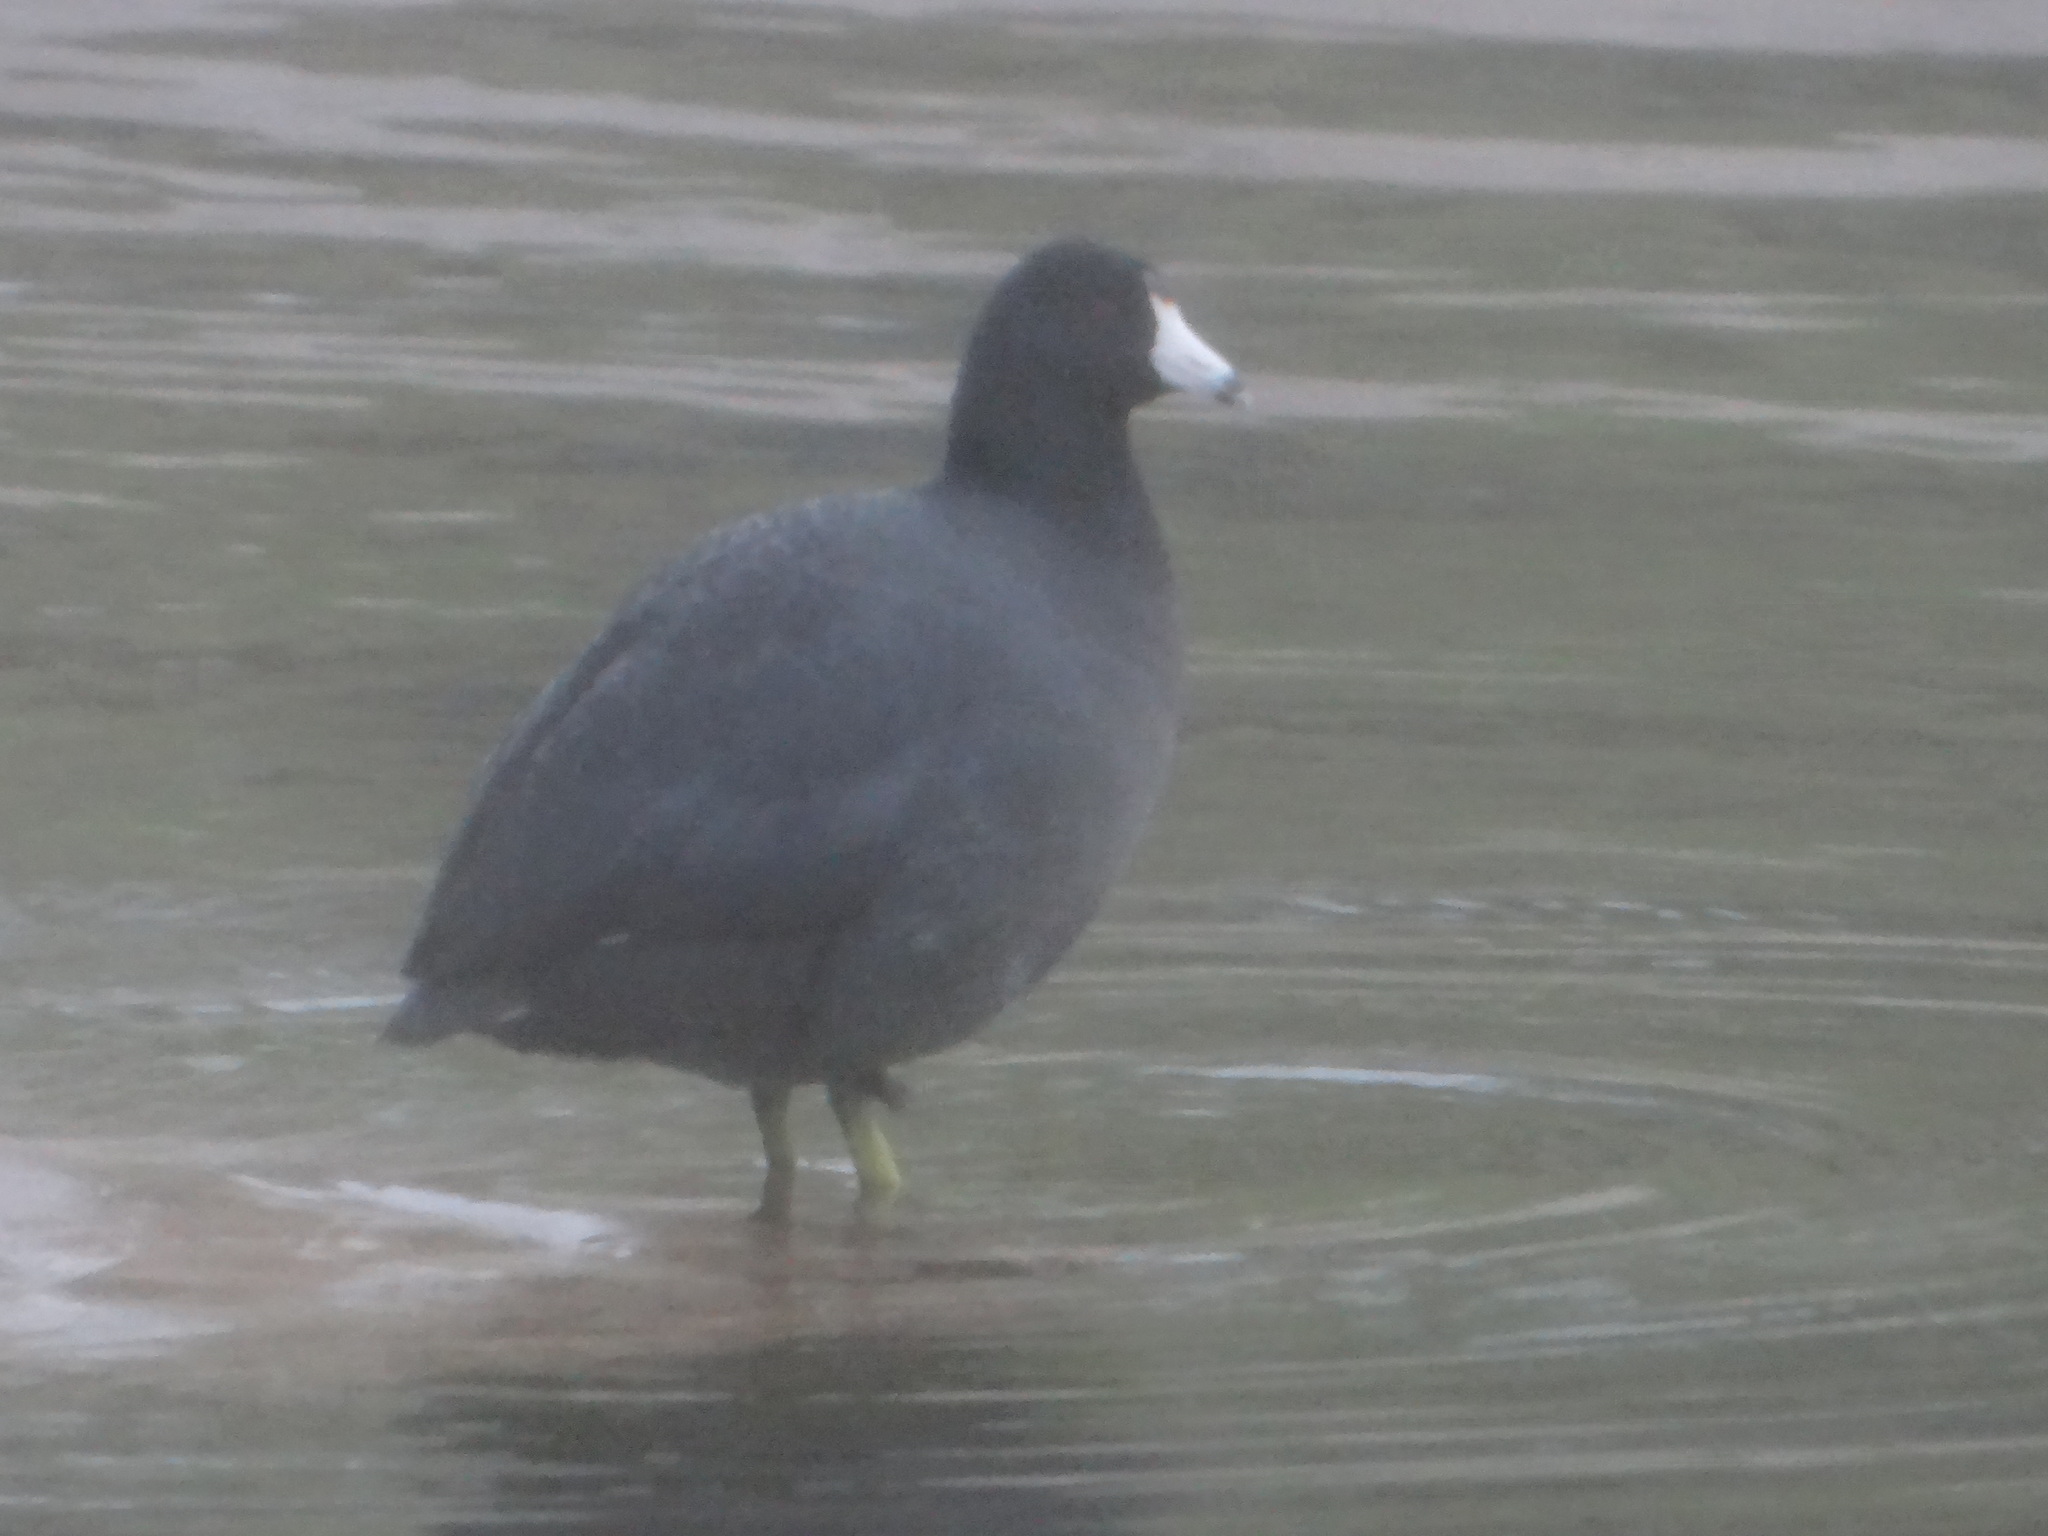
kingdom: Animalia
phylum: Chordata
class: Aves
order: Gruiformes
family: Rallidae
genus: Fulica
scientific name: Fulica americana
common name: American coot
